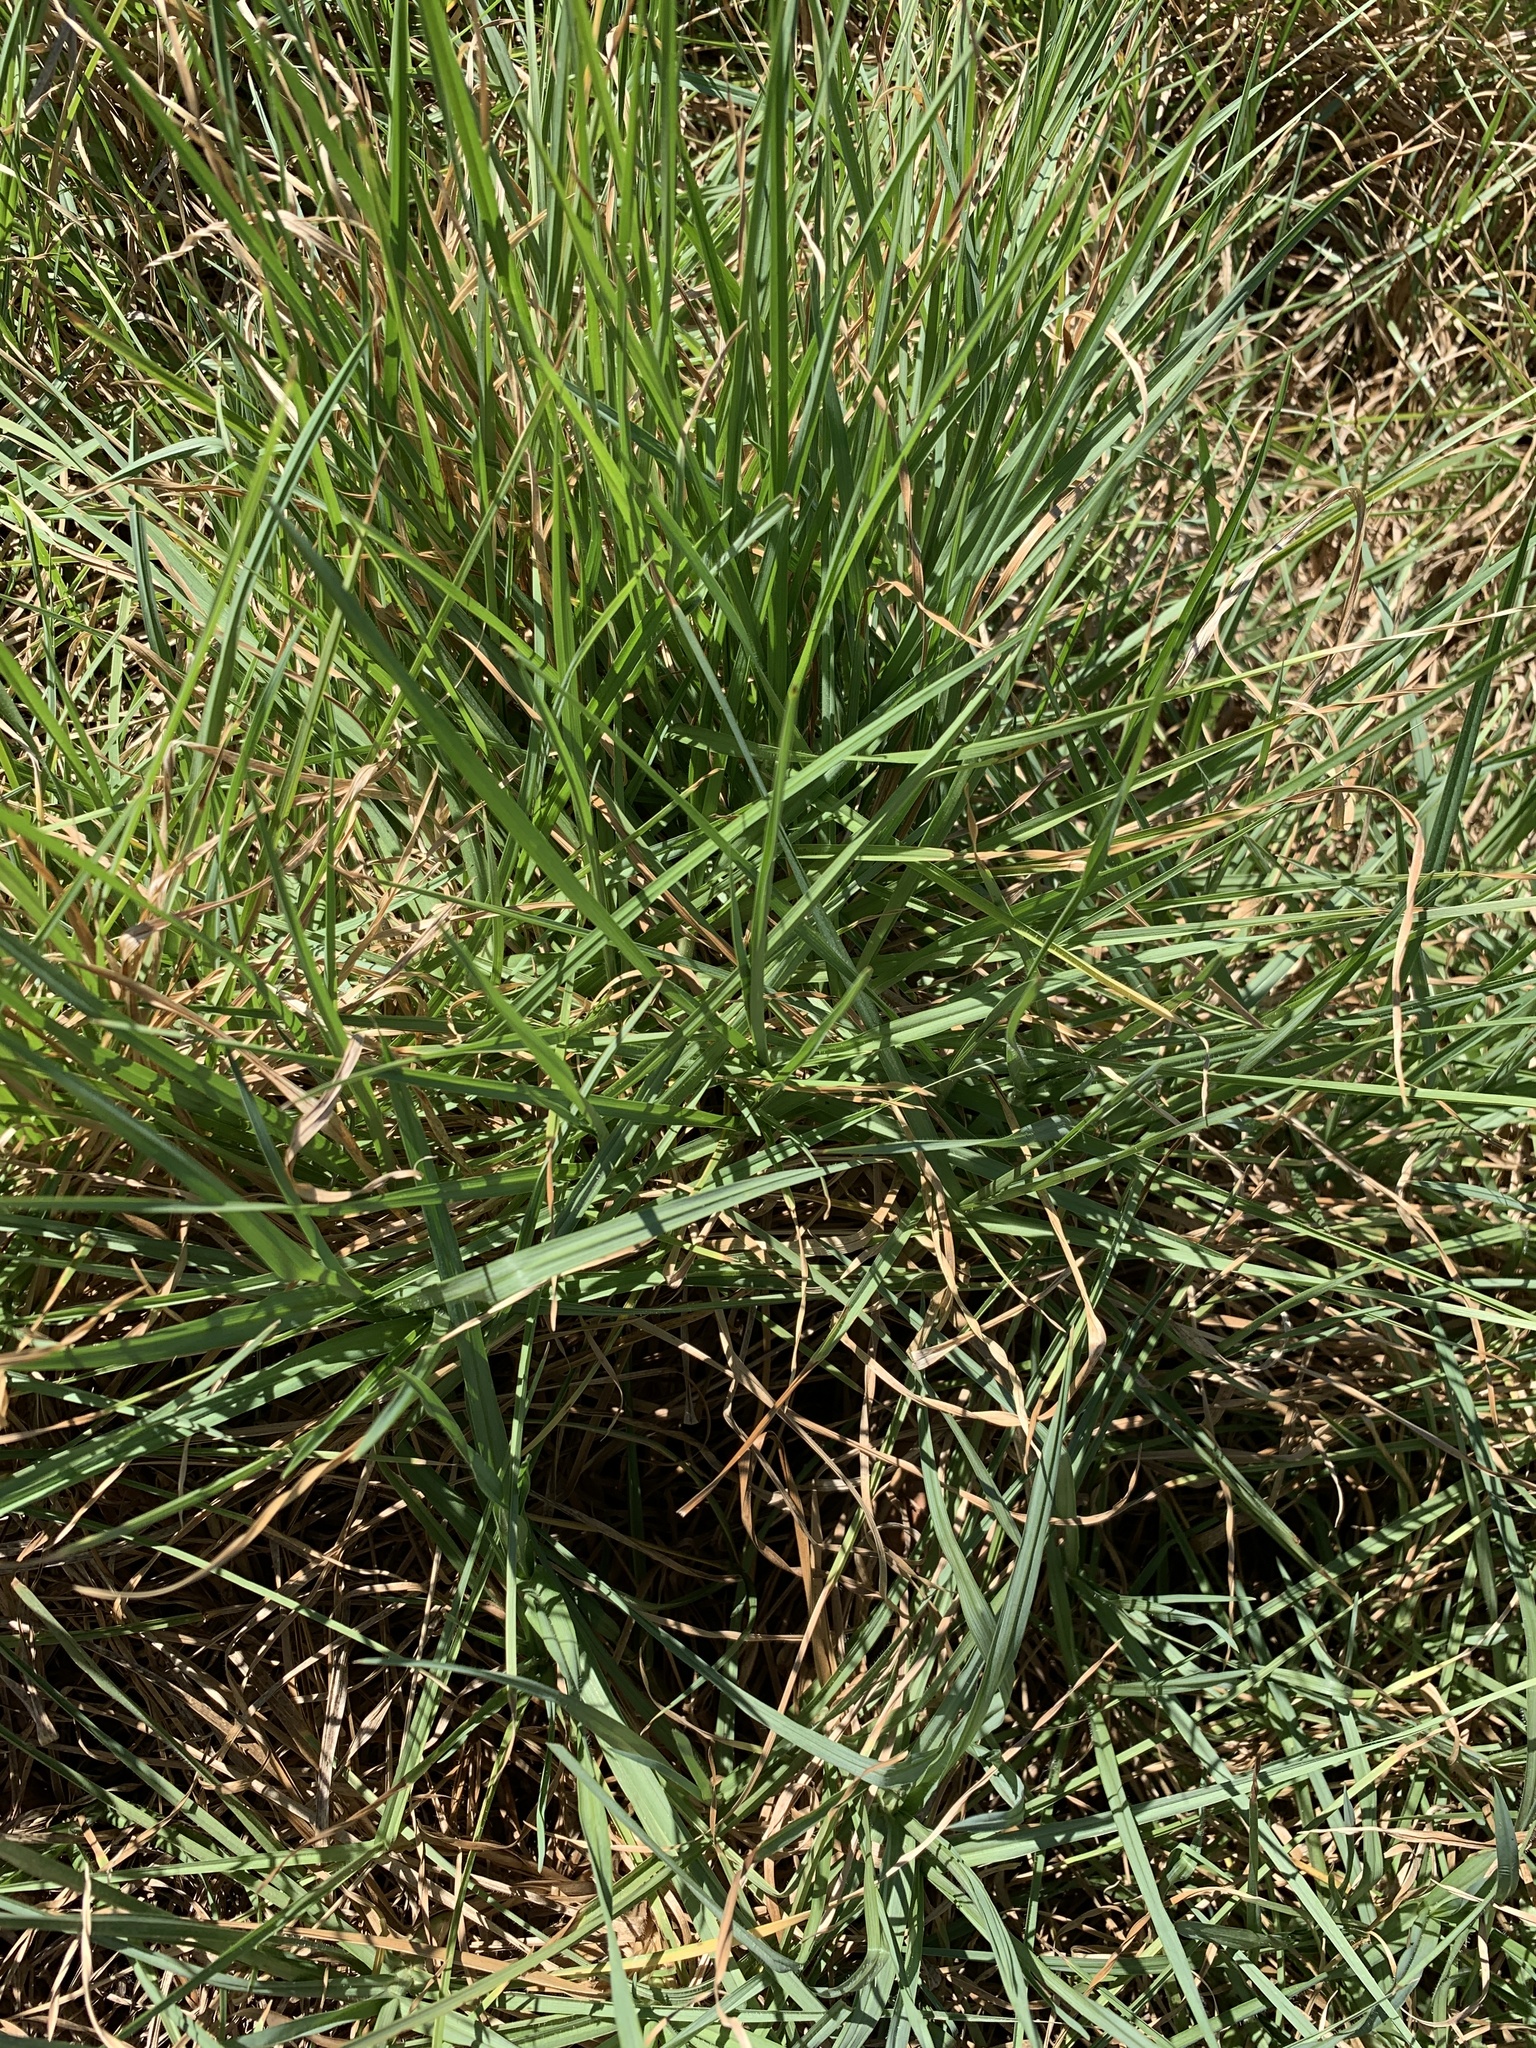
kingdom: Plantae
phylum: Tracheophyta
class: Liliopsida
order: Poales
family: Poaceae
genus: Cenchrus
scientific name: Cenchrus clandestinus
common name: Kikuyugrass
